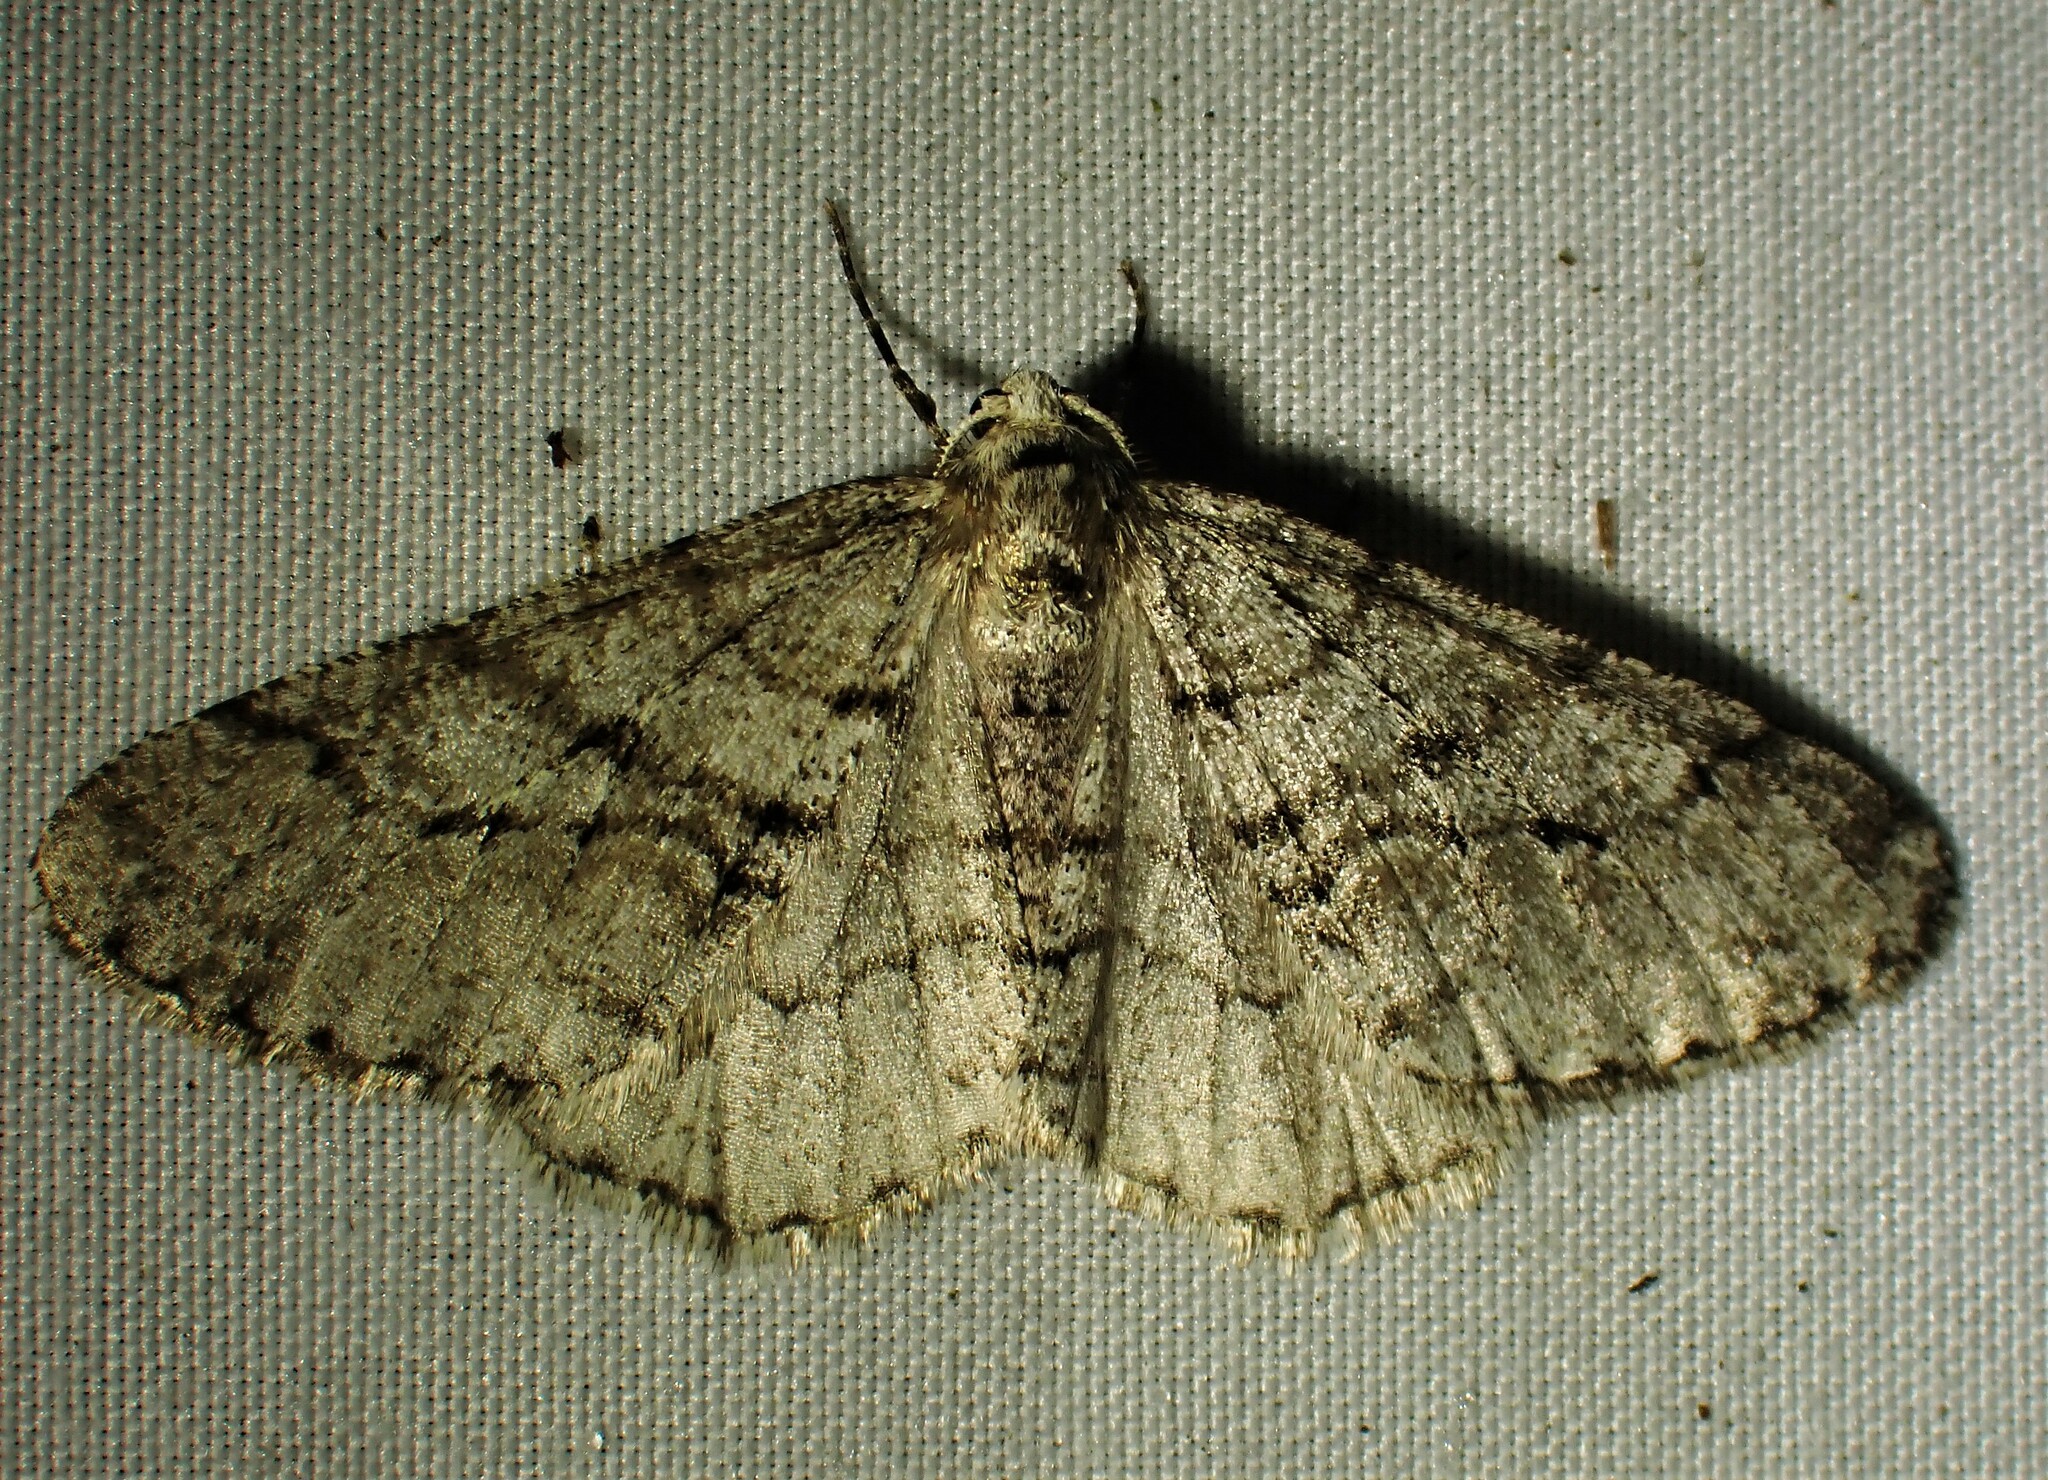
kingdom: Animalia
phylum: Arthropoda
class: Insecta
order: Lepidoptera
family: Geometridae
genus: Phigalia
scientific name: Phigalia titea
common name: Spiny looper
